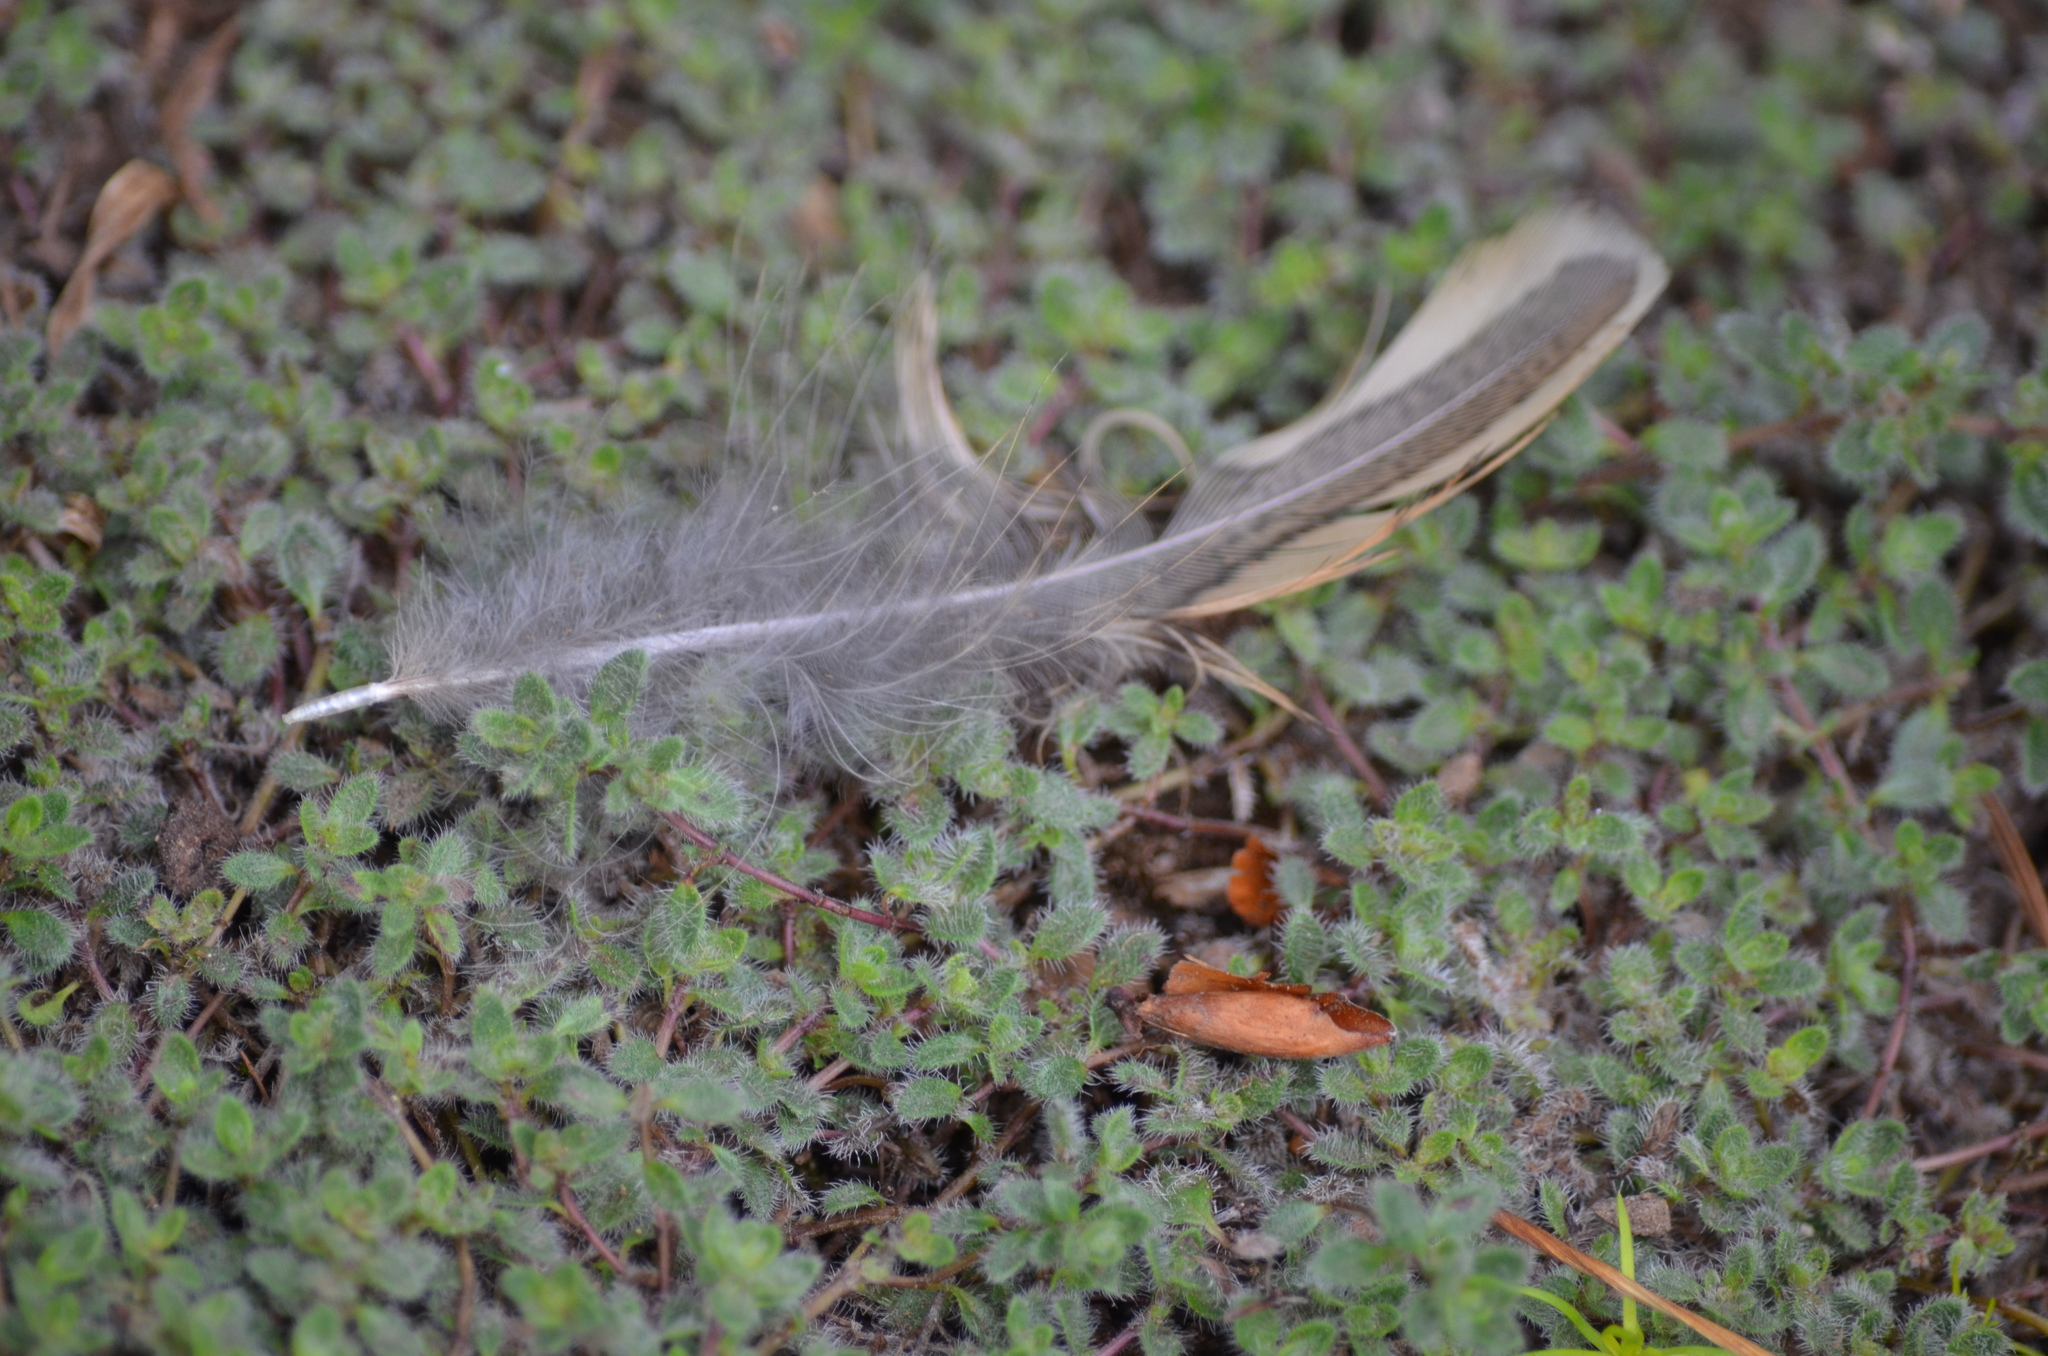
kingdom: Animalia
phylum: Chordata
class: Aves
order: Galliformes
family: Odontophoridae
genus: Callipepla
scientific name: Callipepla californica
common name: California quail
